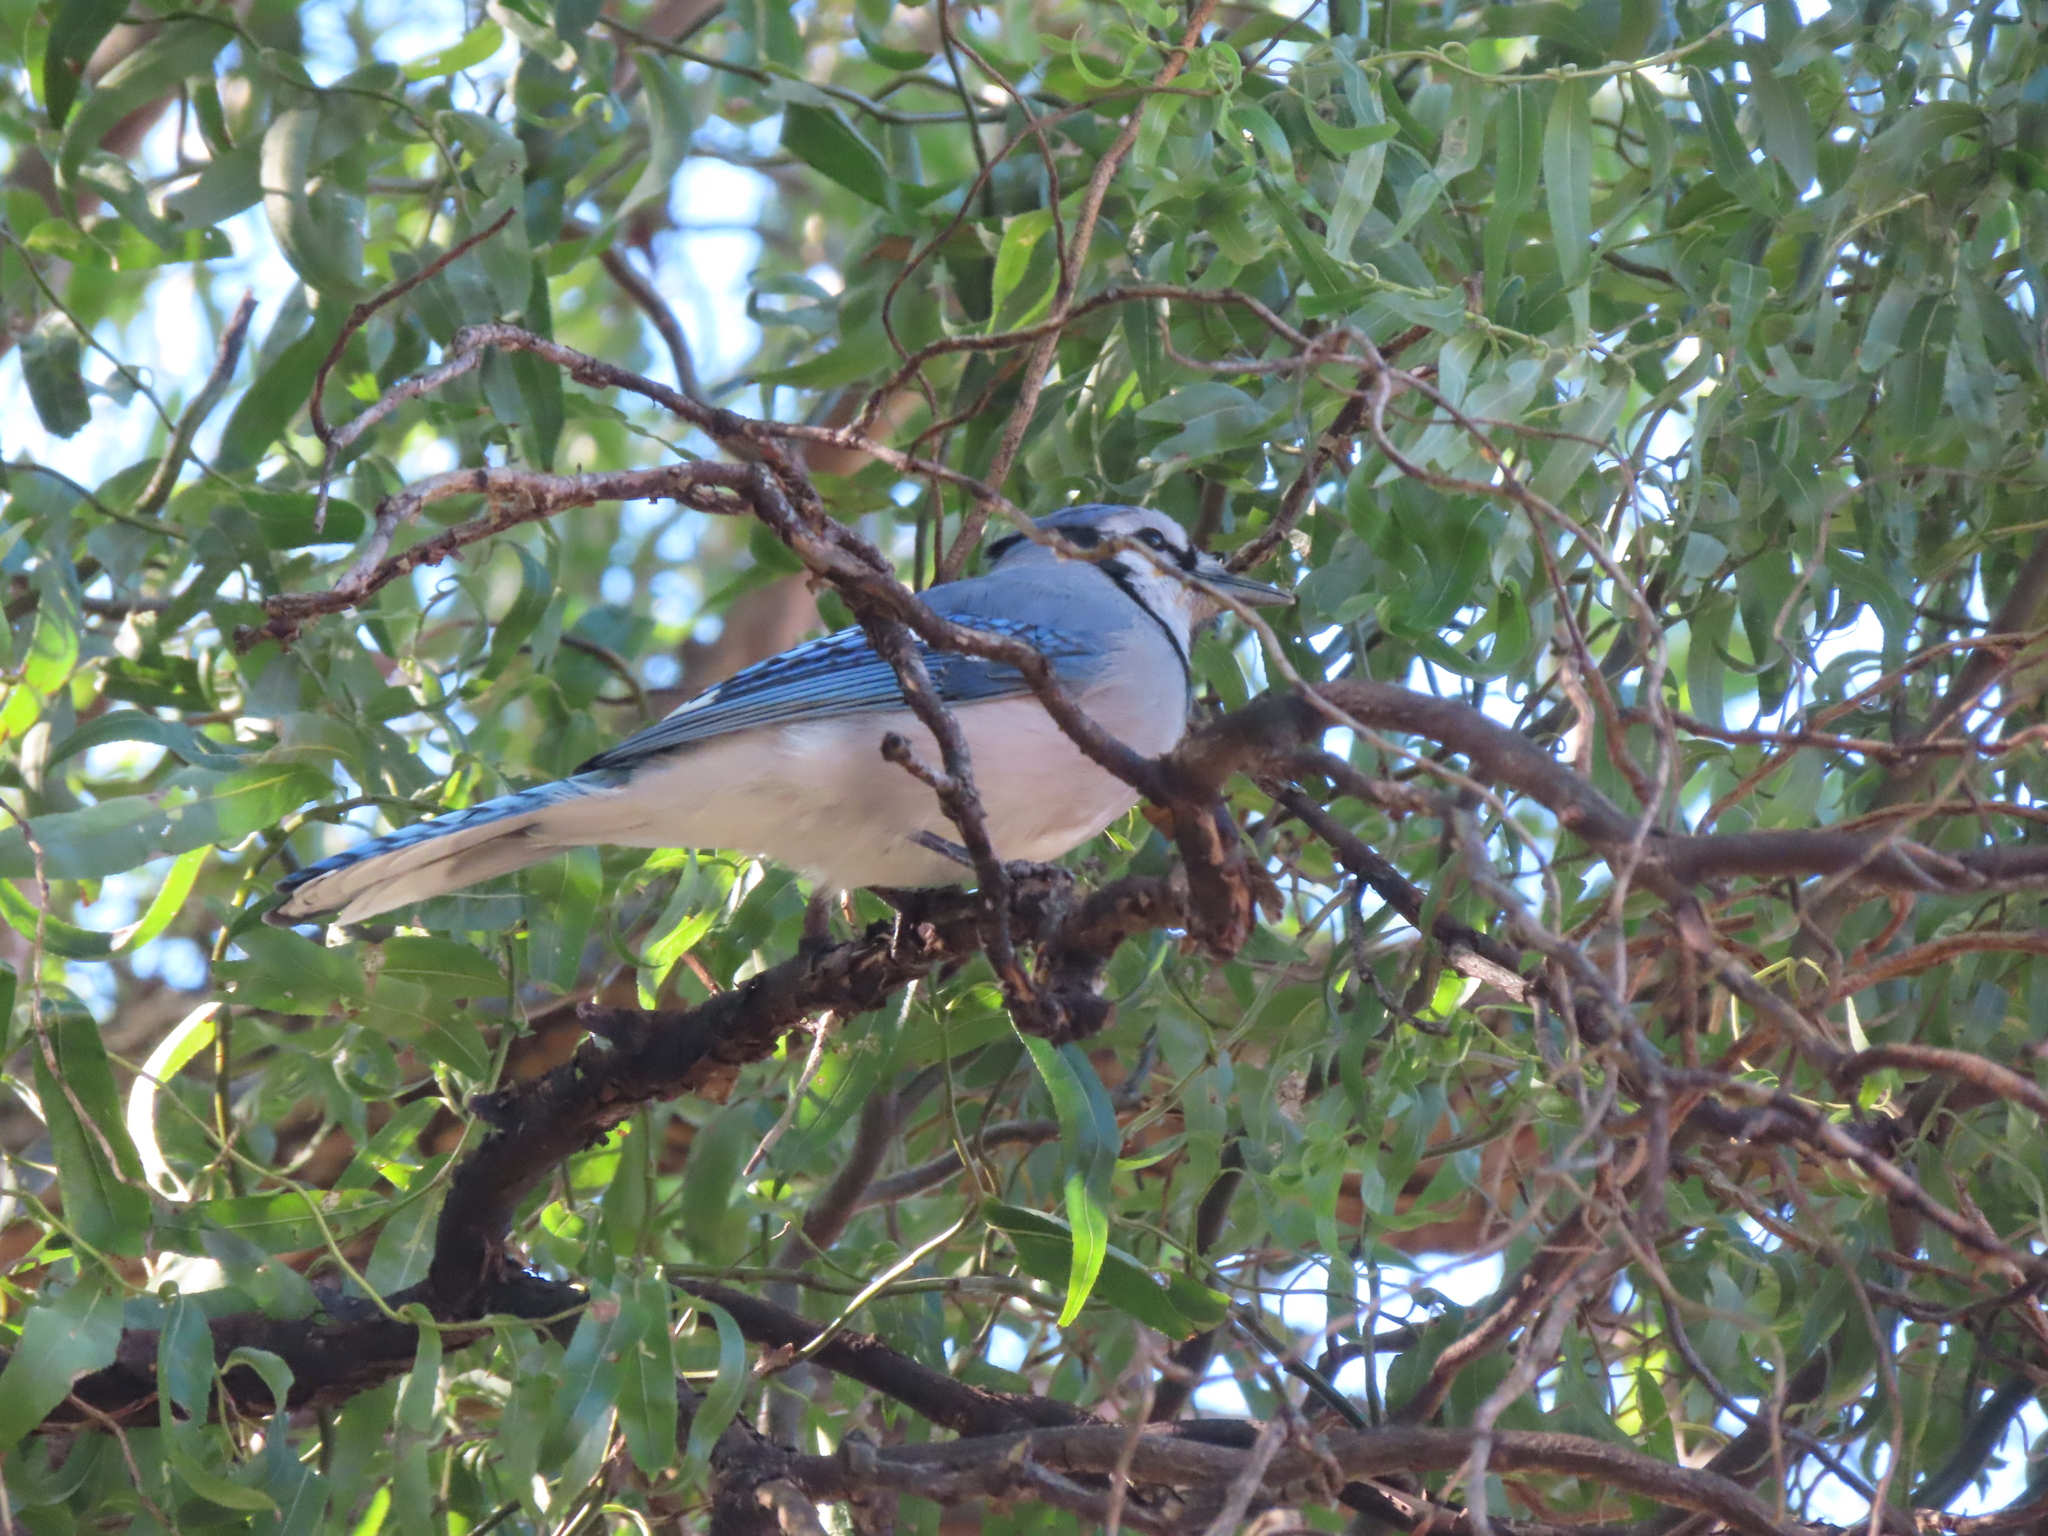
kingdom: Animalia
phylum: Chordata
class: Aves
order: Passeriformes
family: Corvidae
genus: Cyanocitta
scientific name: Cyanocitta cristata
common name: Blue jay
